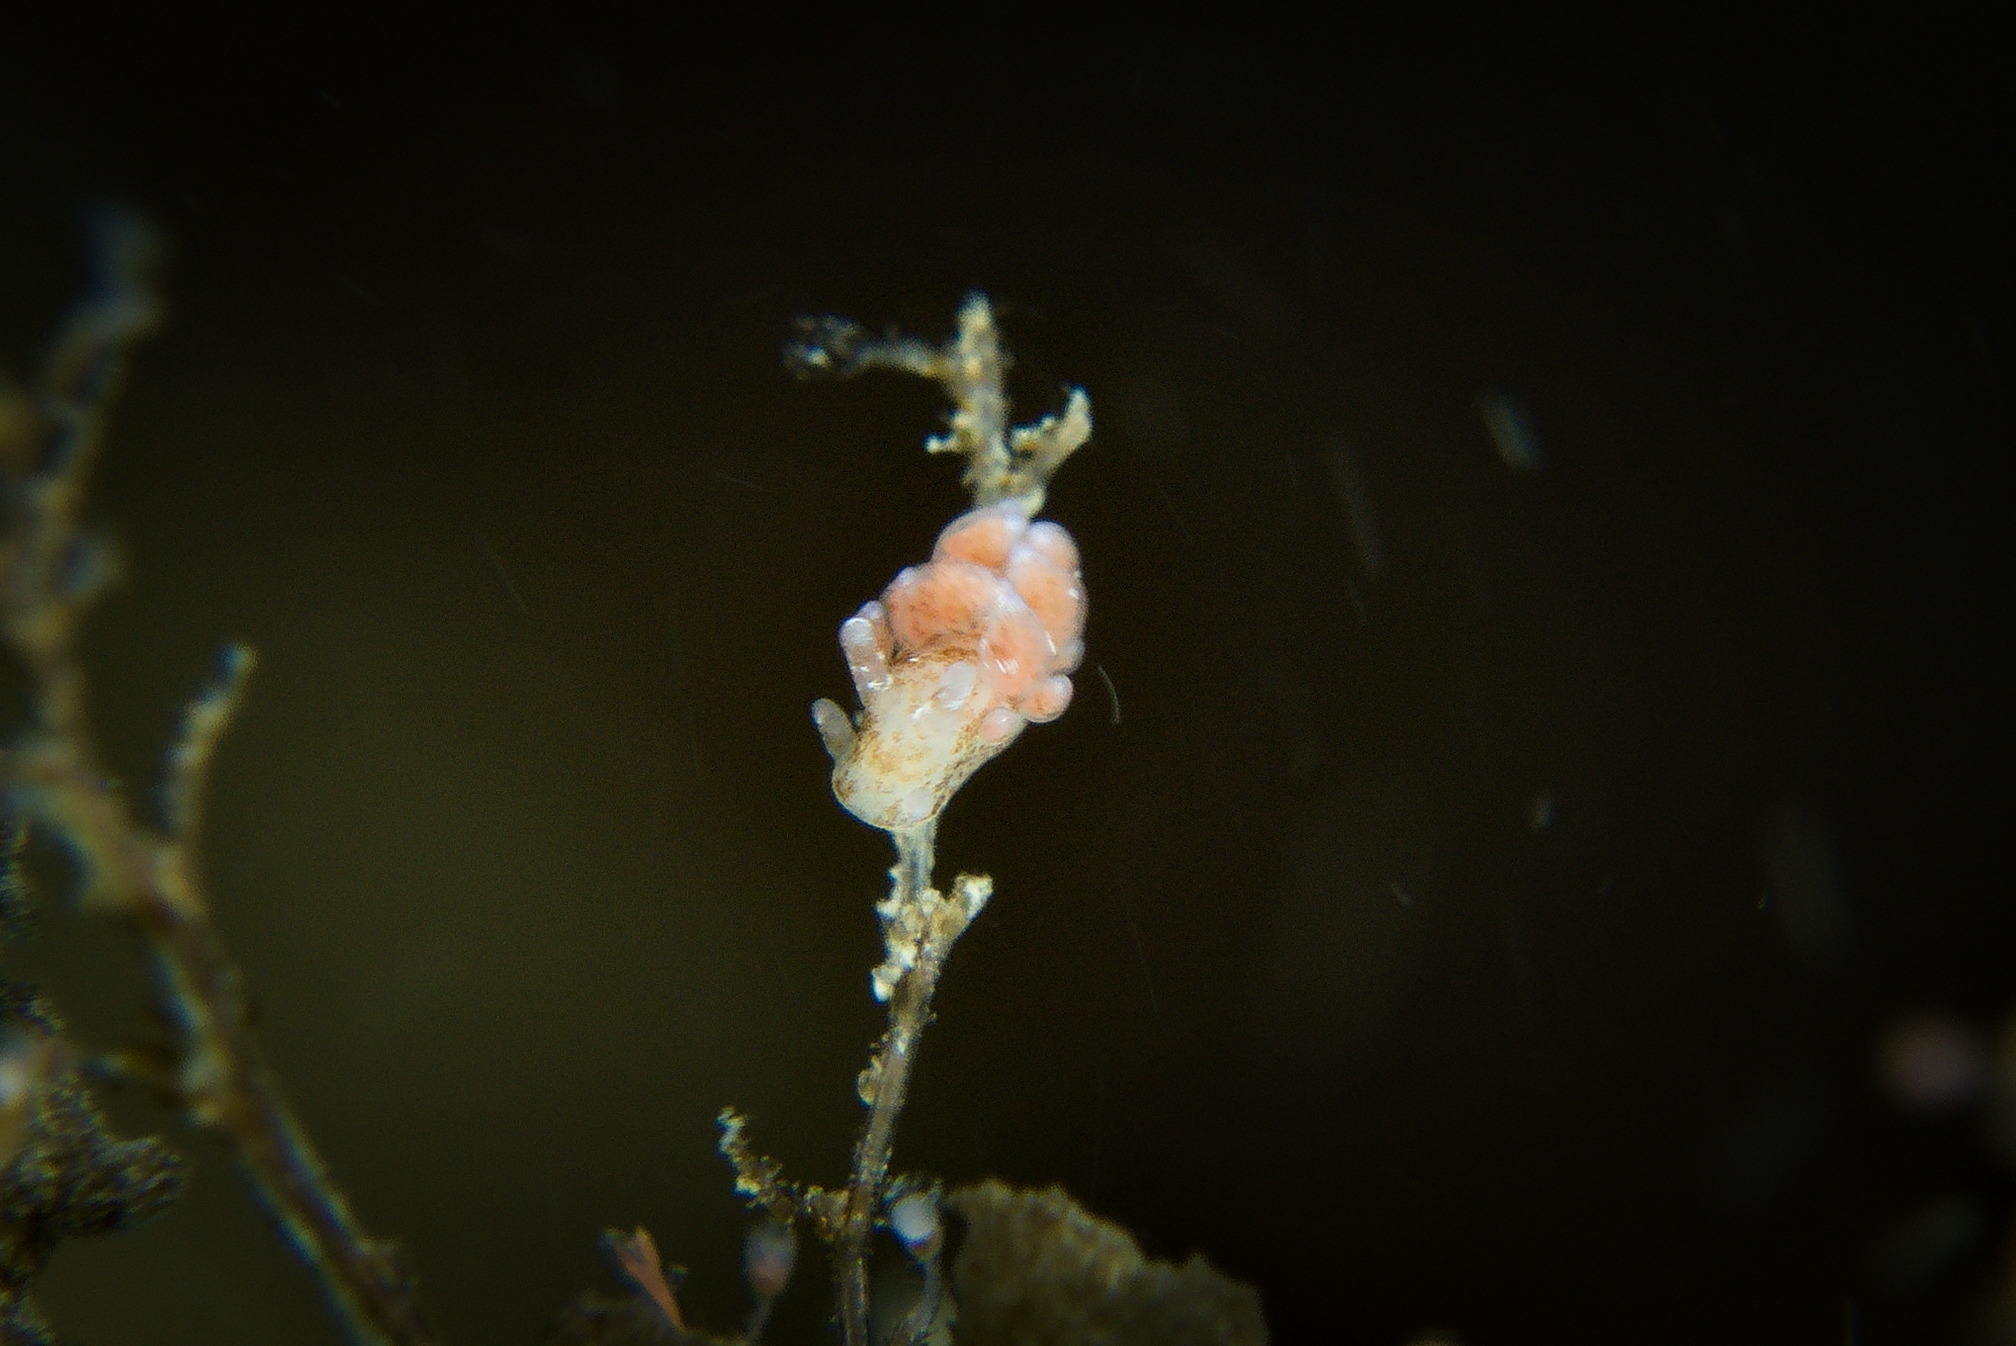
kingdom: Animalia
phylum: Mollusca
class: Gastropoda
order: Nudibranchia
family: Eubranchidae
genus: Eubranchus
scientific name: Eubranchus rupium
